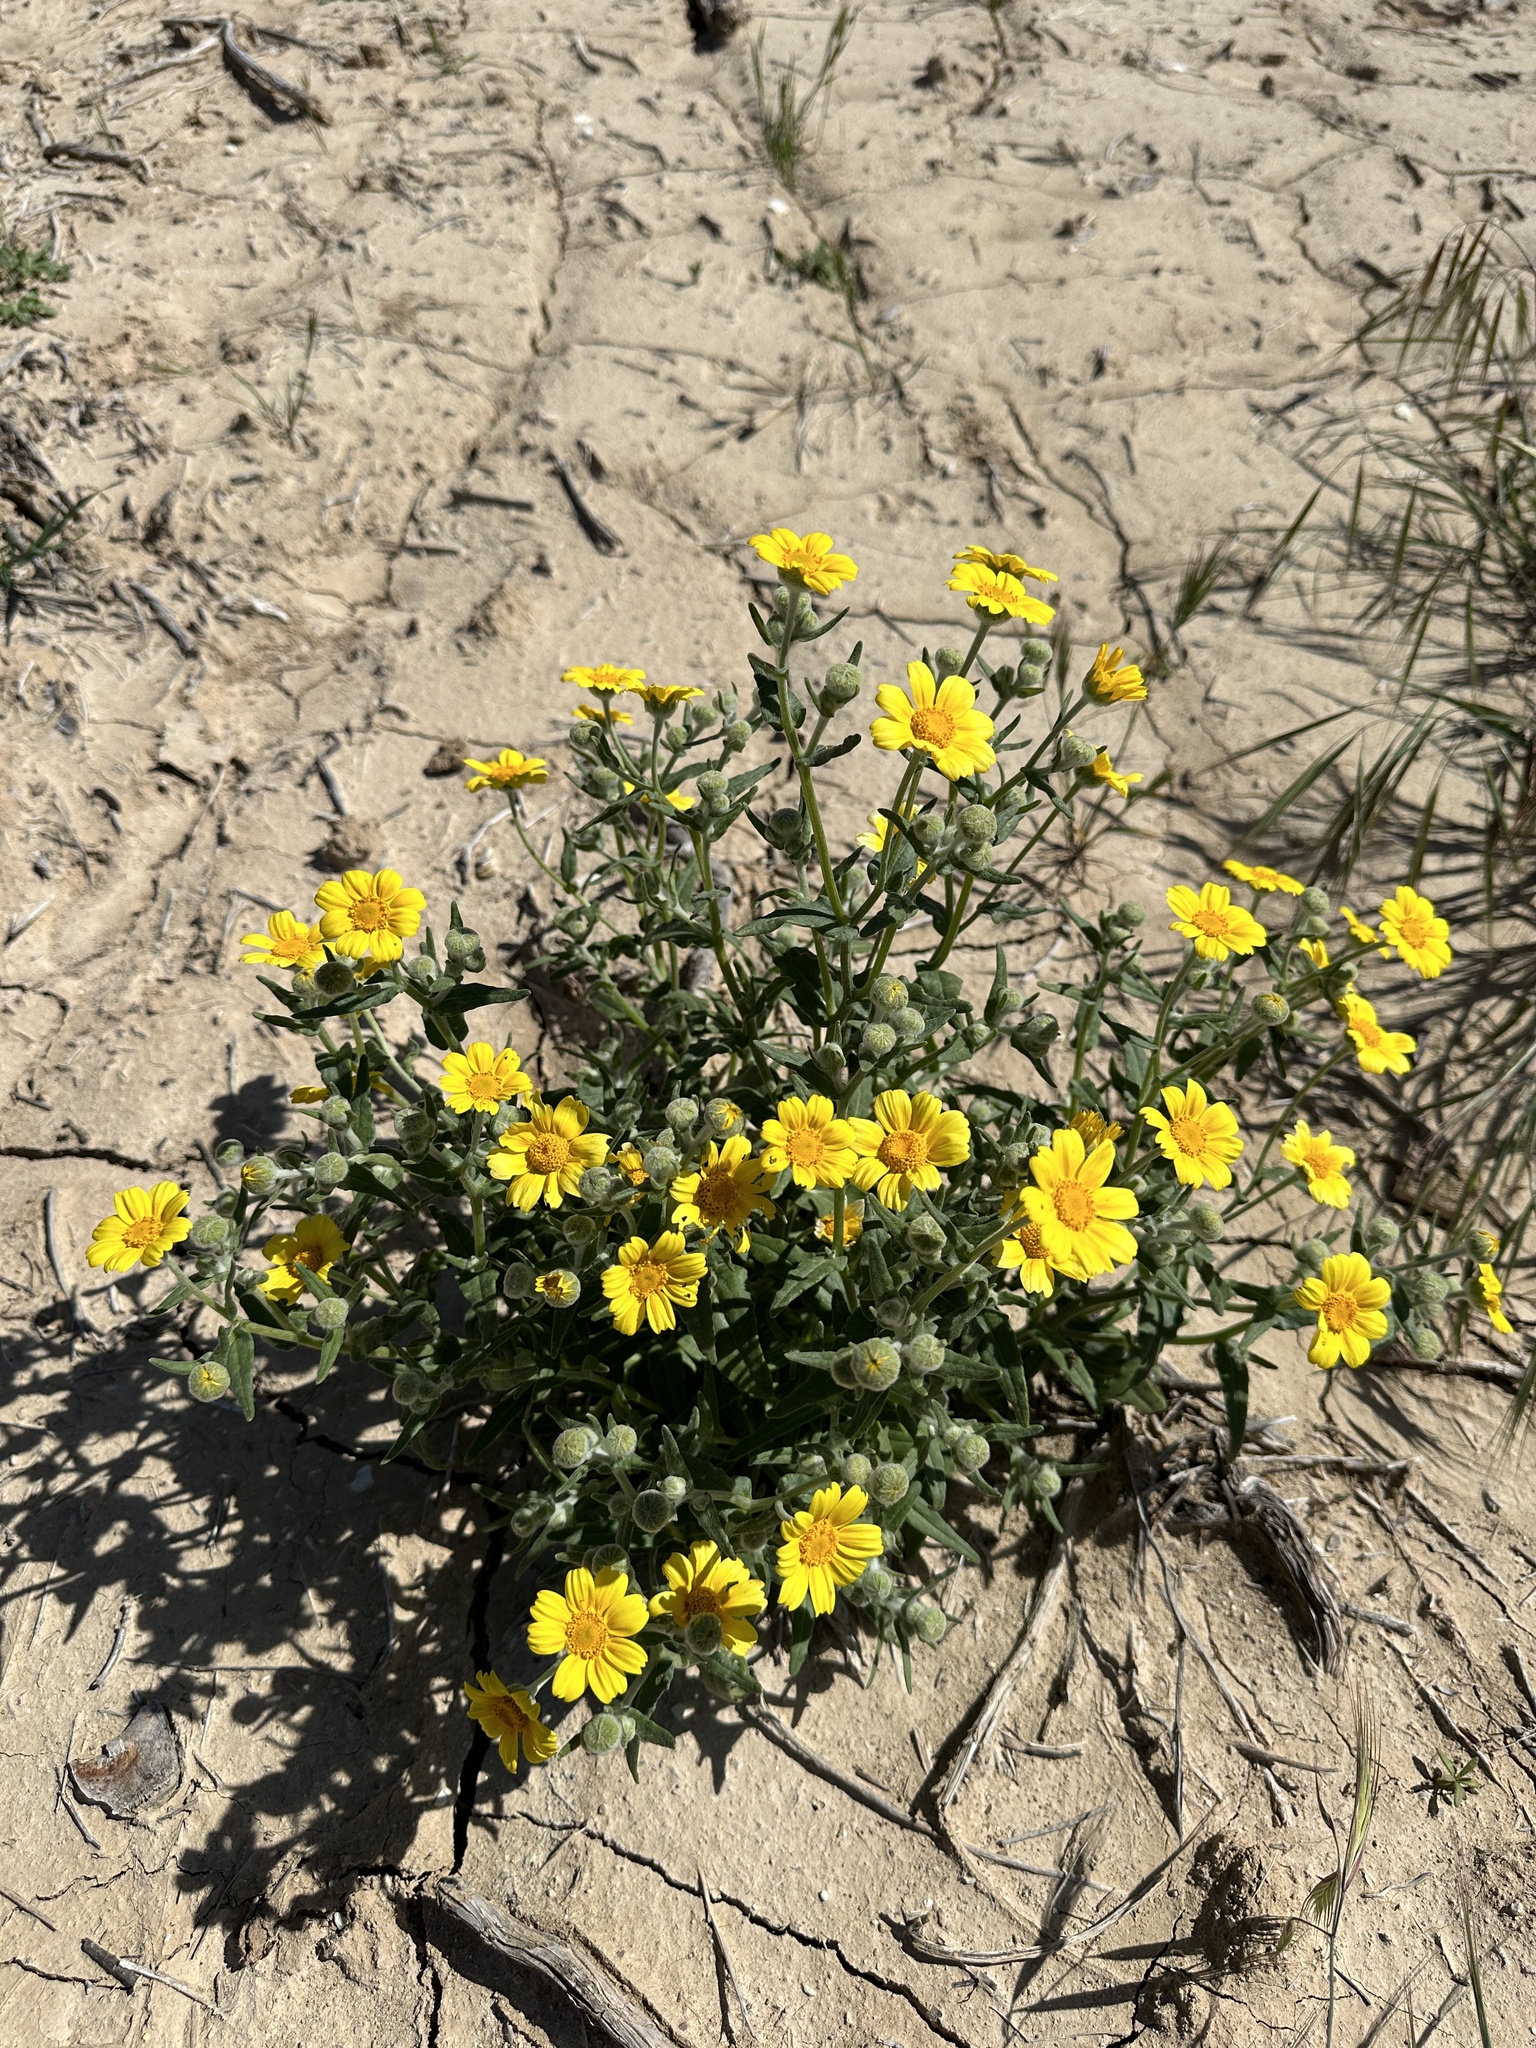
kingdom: Plantae
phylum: Tracheophyta
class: Magnoliopsida
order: Asterales
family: Asteraceae
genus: Monolopia
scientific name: Monolopia lanceolata
